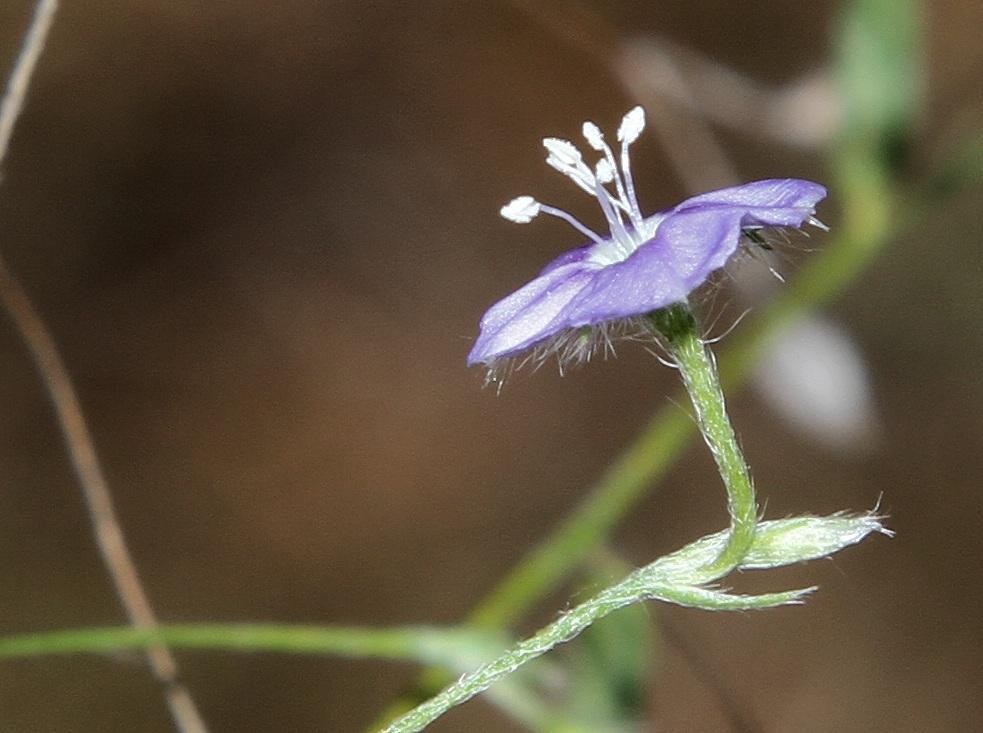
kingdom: Plantae
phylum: Tracheophyta
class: Magnoliopsida
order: Solanales
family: Convolvulaceae
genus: Evolvulus
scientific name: Evolvulus alsinoides
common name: Slender dwarf morning-glory
